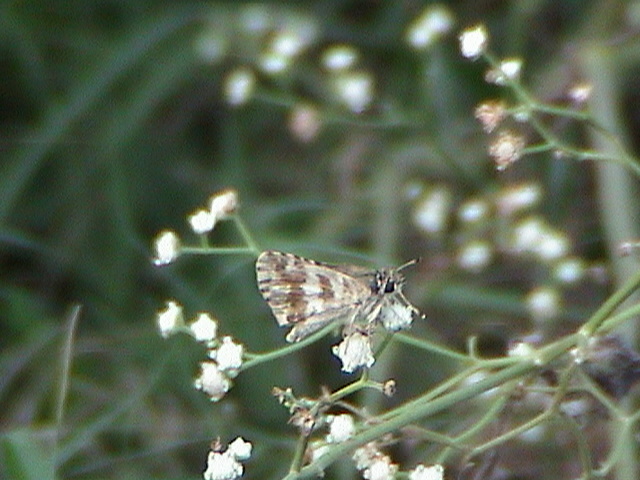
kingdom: Animalia
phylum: Arthropoda
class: Insecta
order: Lepidoptera
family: Hesperiidae
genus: Gomalia
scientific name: Gomalia elma
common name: Green-marbled skipper
